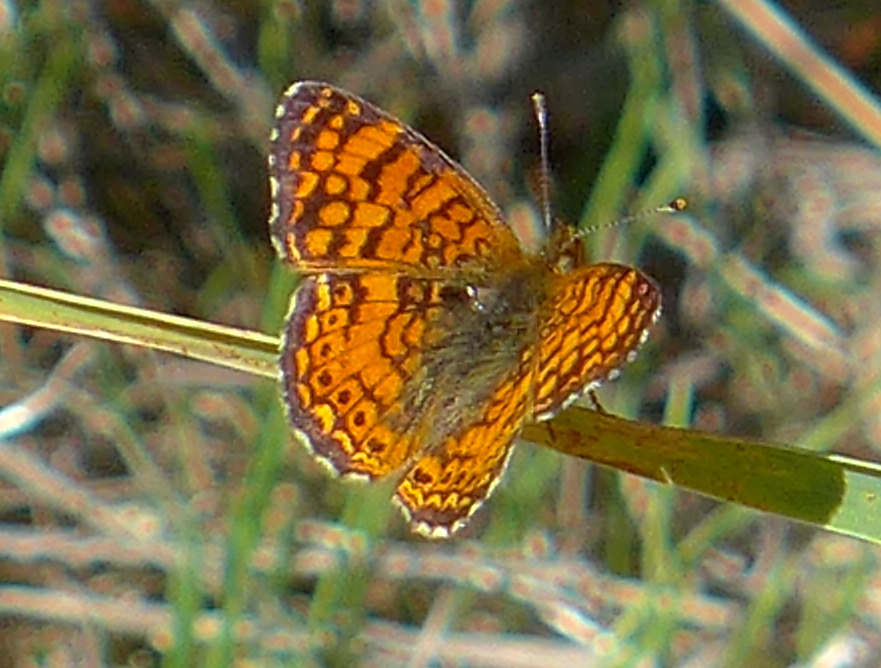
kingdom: Animalia
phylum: Arthropoda
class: Insecta
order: Lepidoptera
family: Nymphalidae
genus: Eresia
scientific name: Eresia aveyrona
